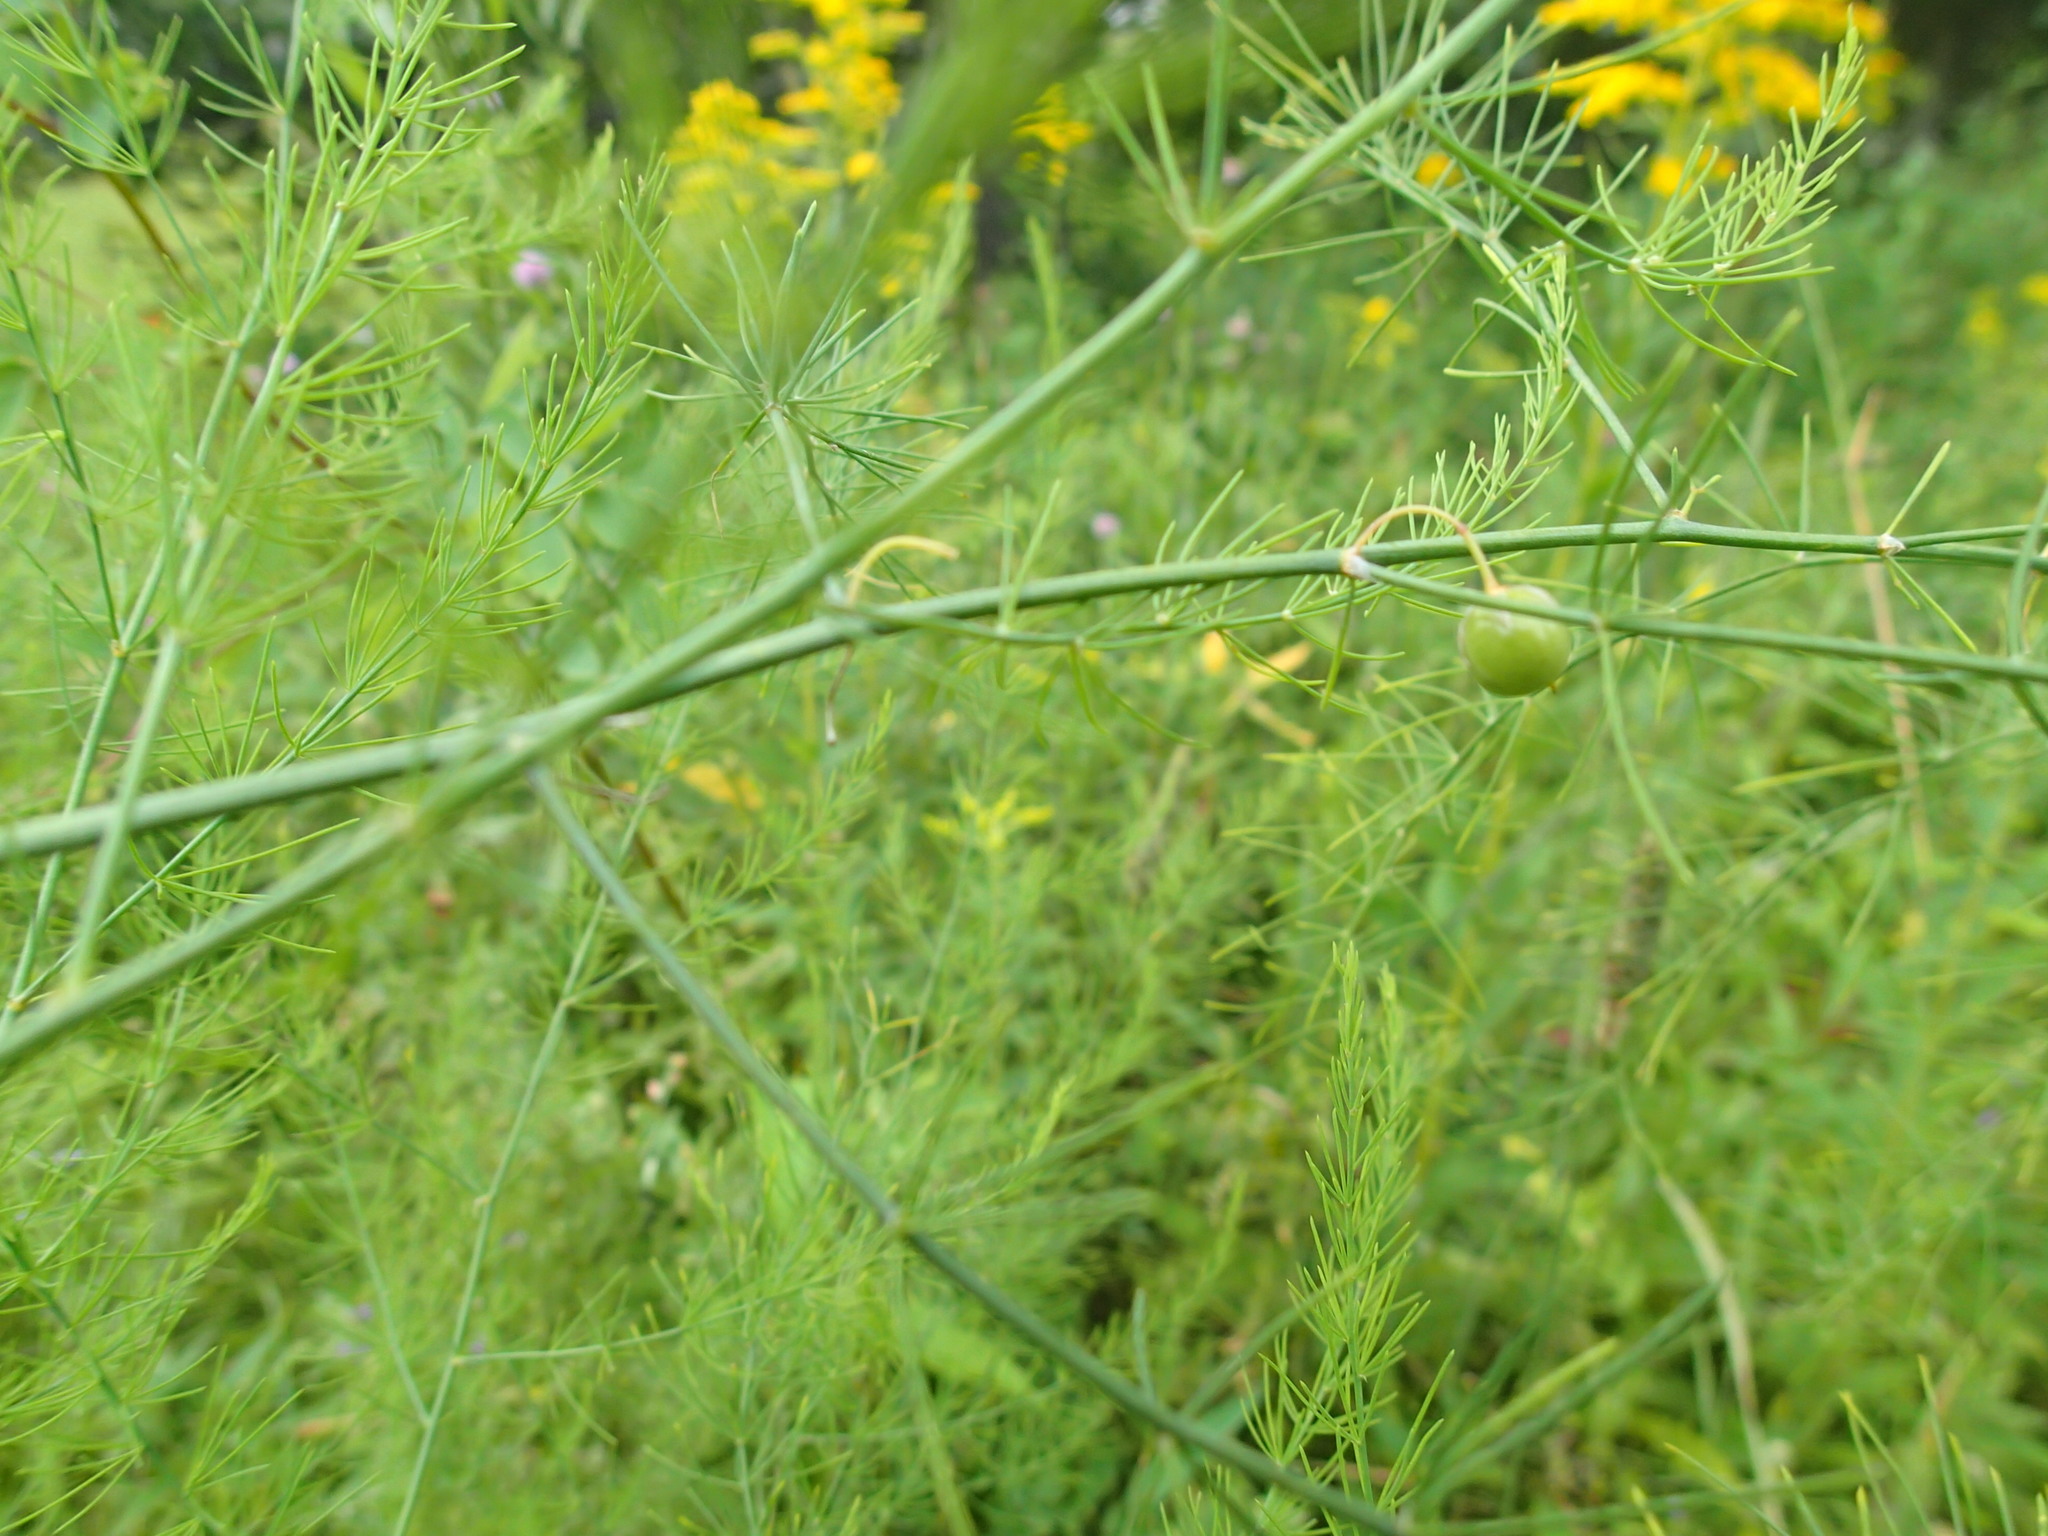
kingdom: Plantae
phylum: Tracheophyta
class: Liliopsida
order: Asparagales
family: Asparagaceae
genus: Asparagus
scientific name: Asparagus officinalis
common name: Garden asparagus
